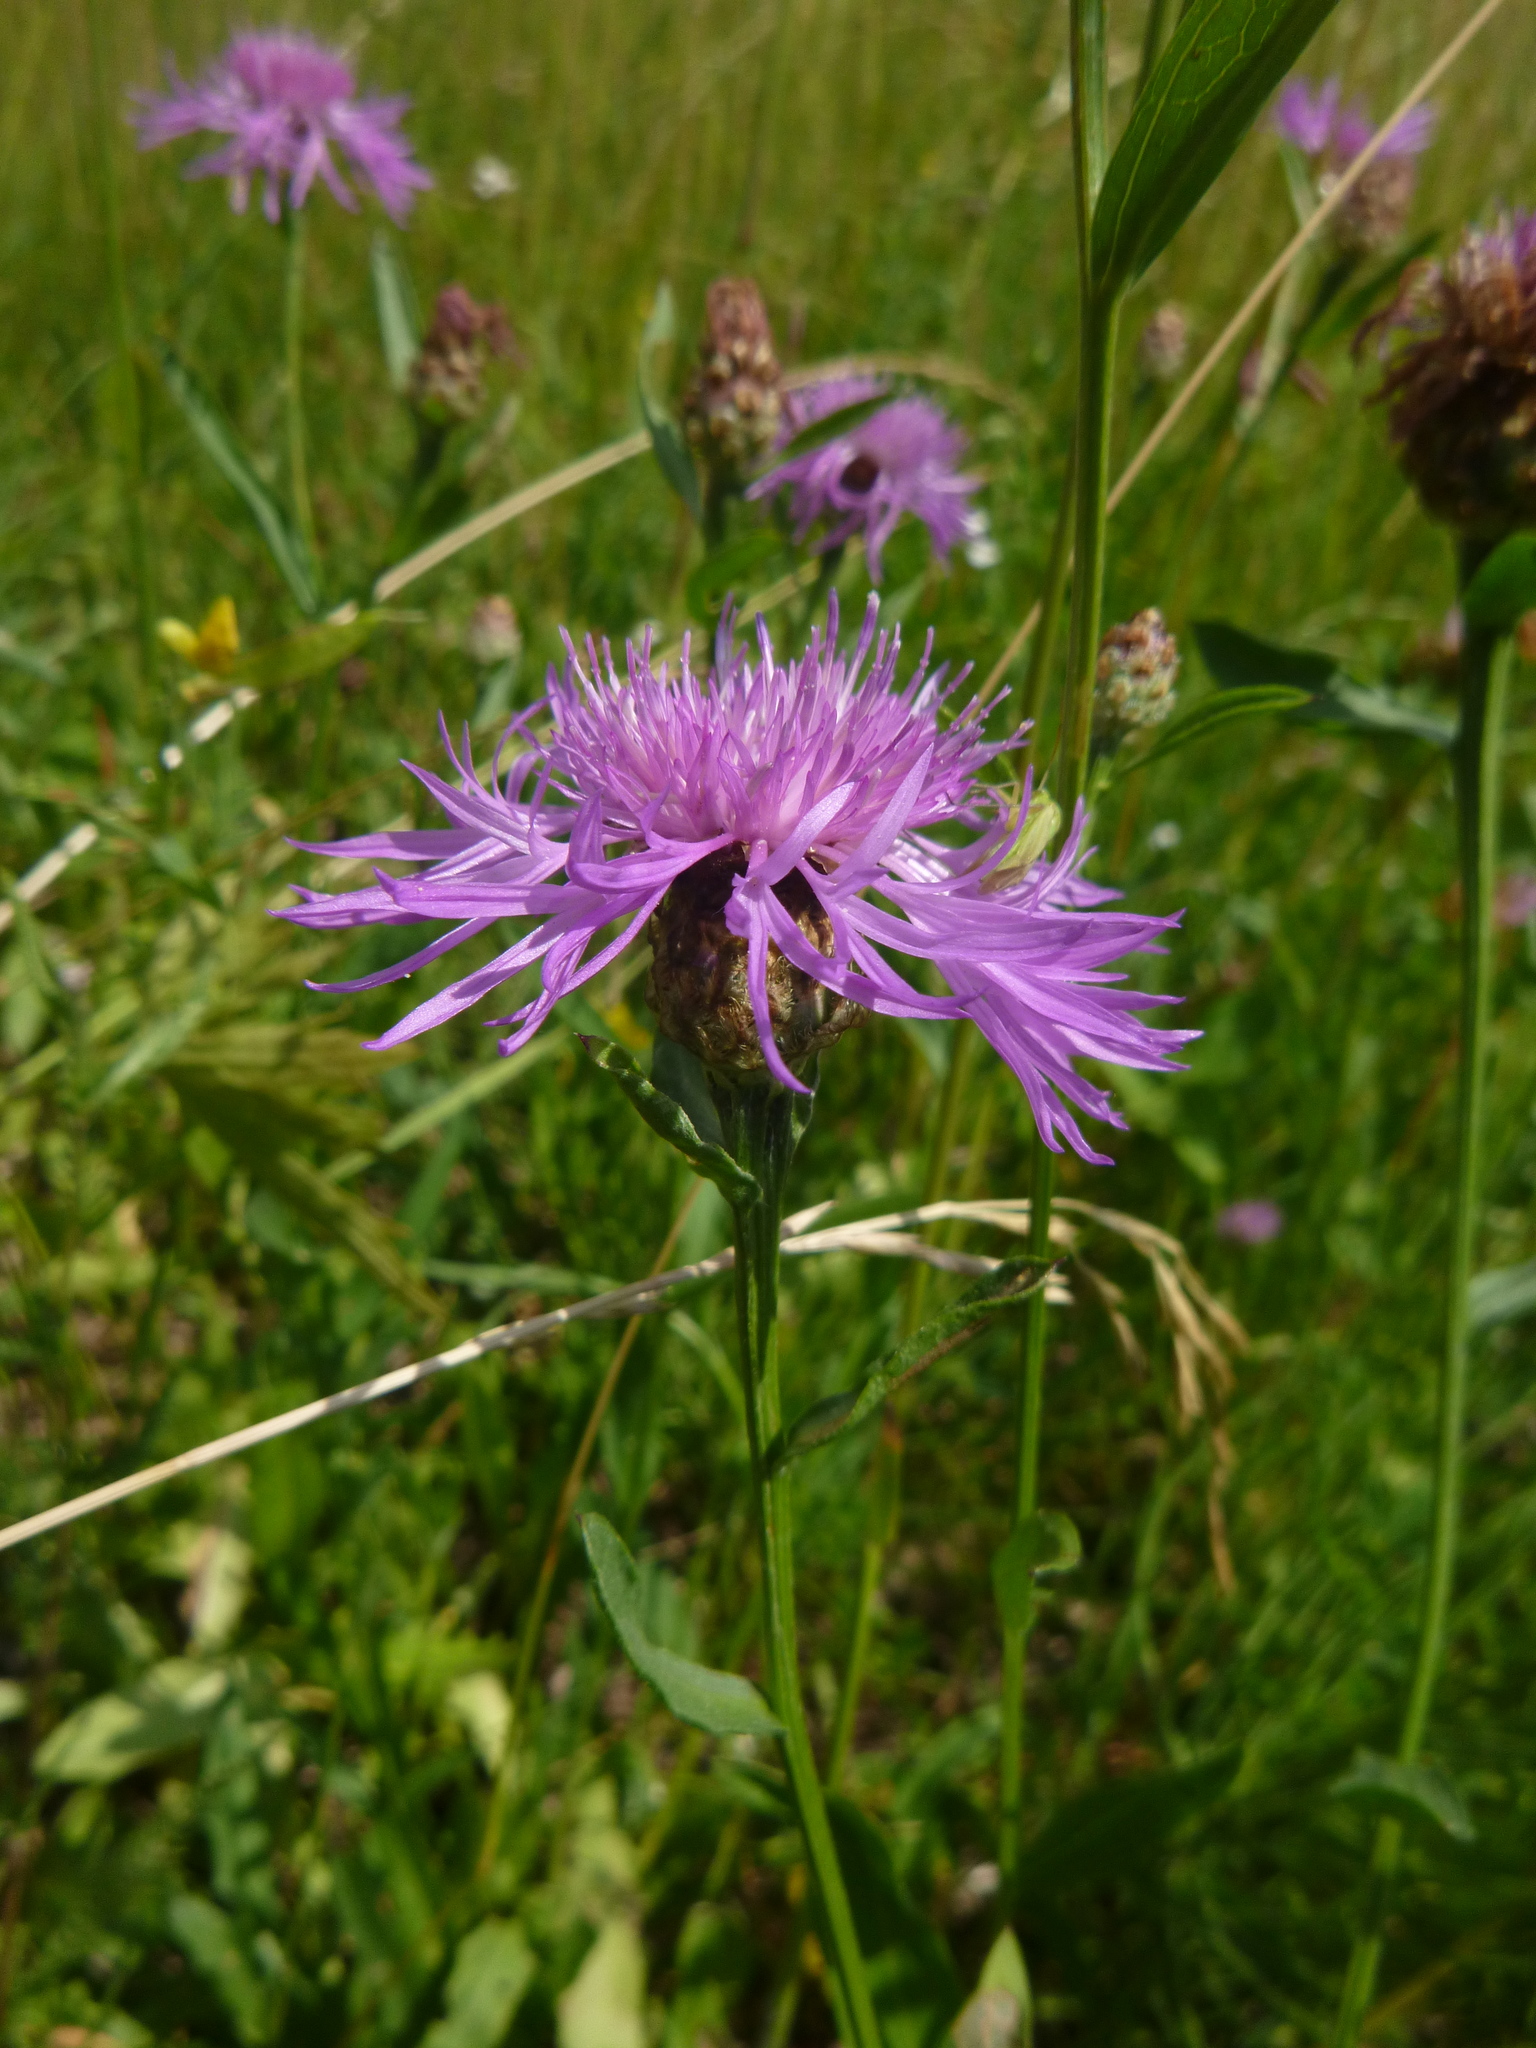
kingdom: Plantae
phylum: Tracheophyta
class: Magnoliopsida
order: Asterales
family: Asteraceae
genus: Centaurea
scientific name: Centaurea jacea
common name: Brown knapweed
